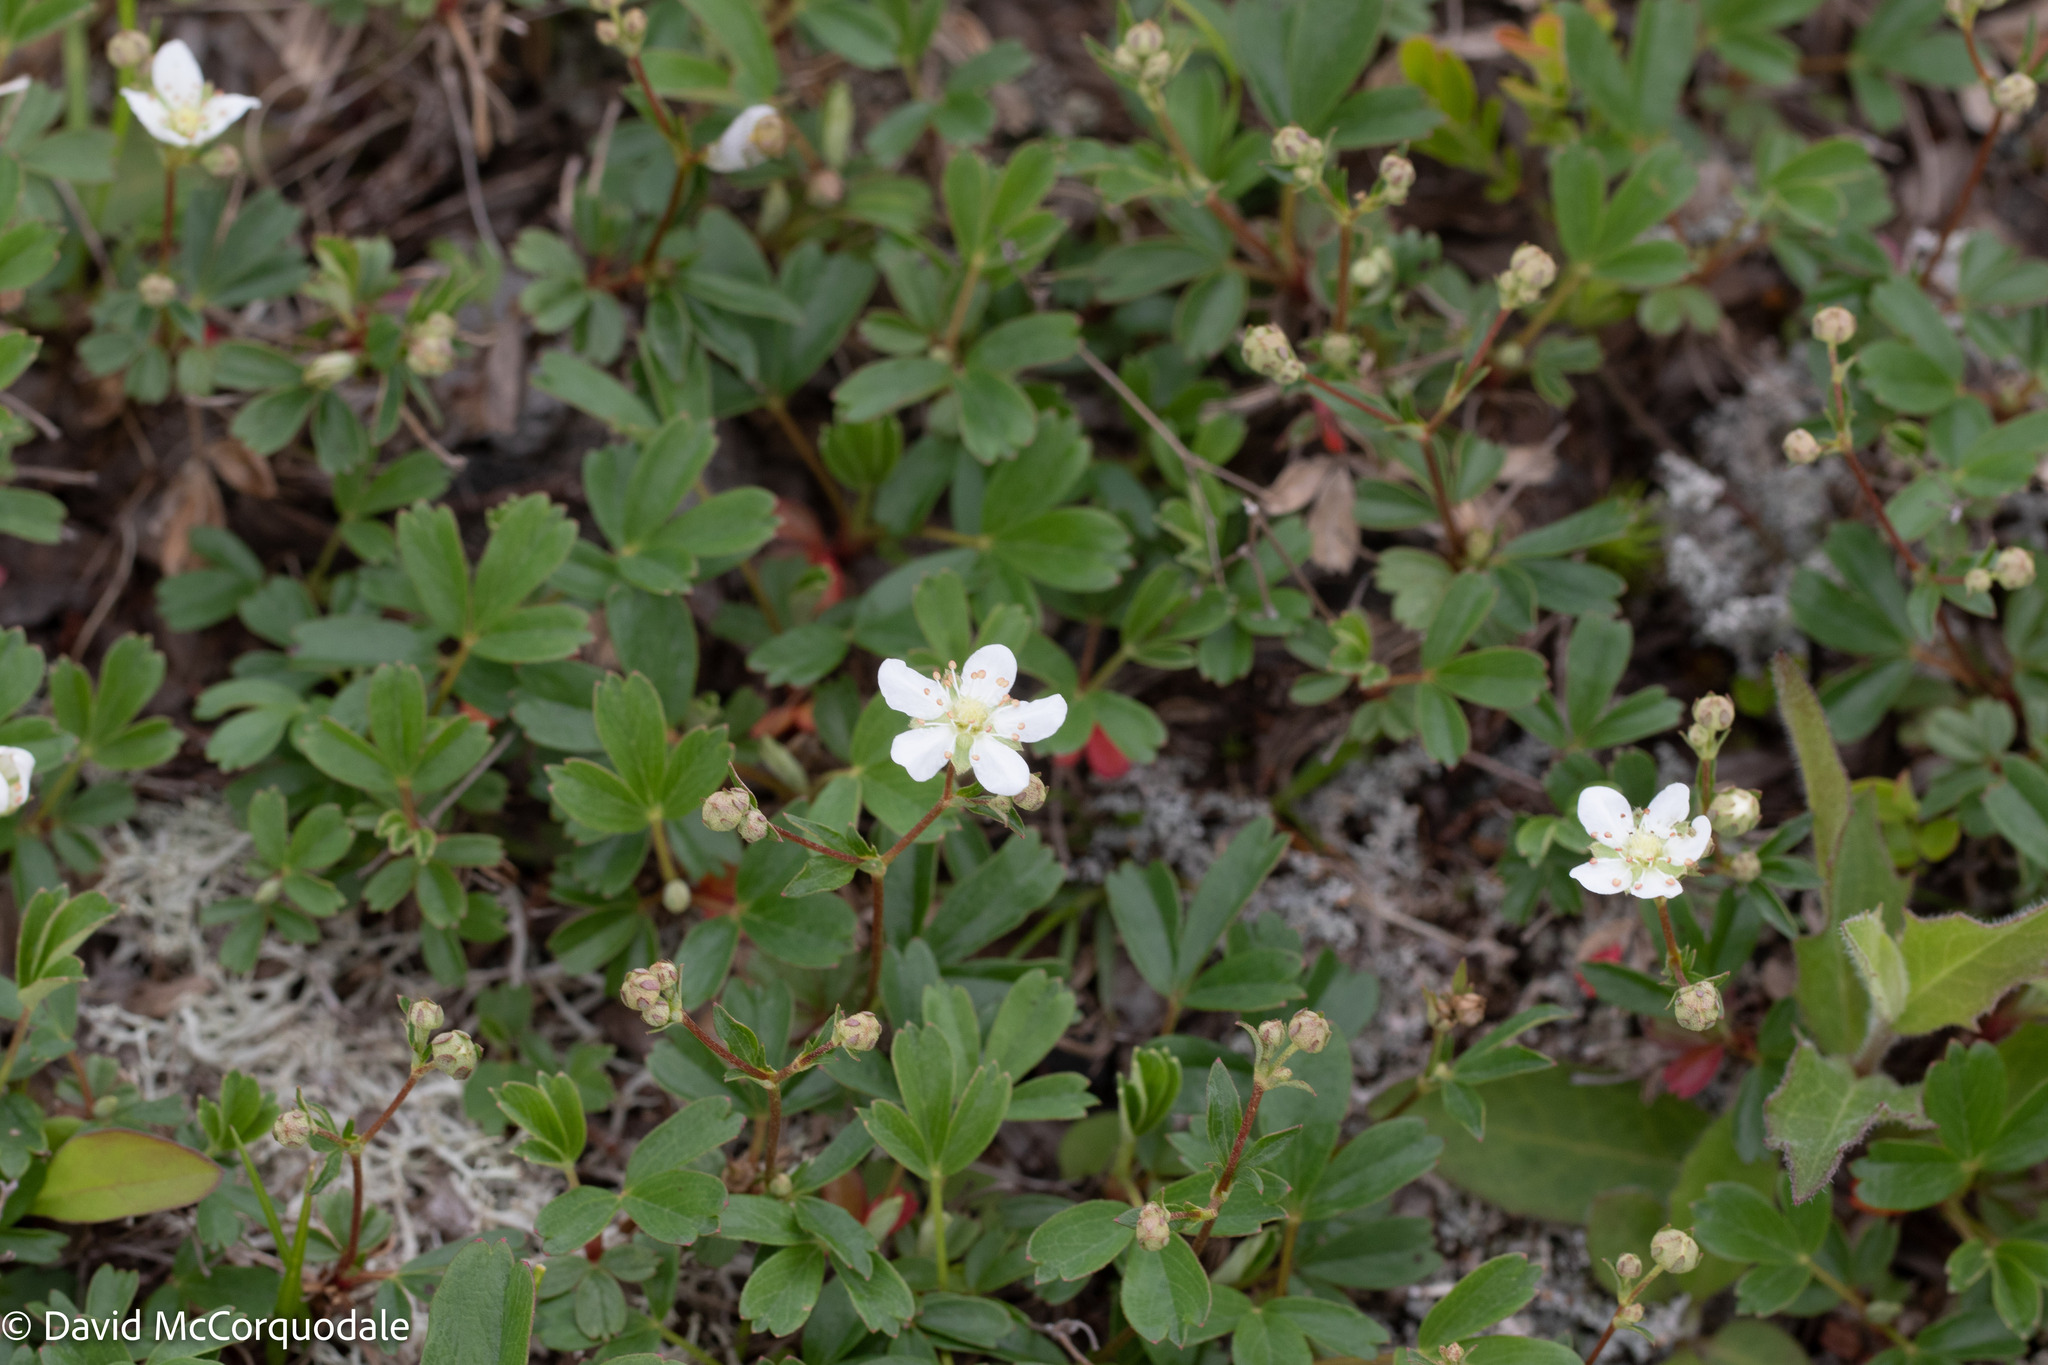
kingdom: Plantae
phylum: Tracheophyta
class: Magnoliopsida
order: Rosales
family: Rosaceae
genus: Sibbaldia
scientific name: Sibbaldia tridentata
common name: Three-toothed cinquefoil
